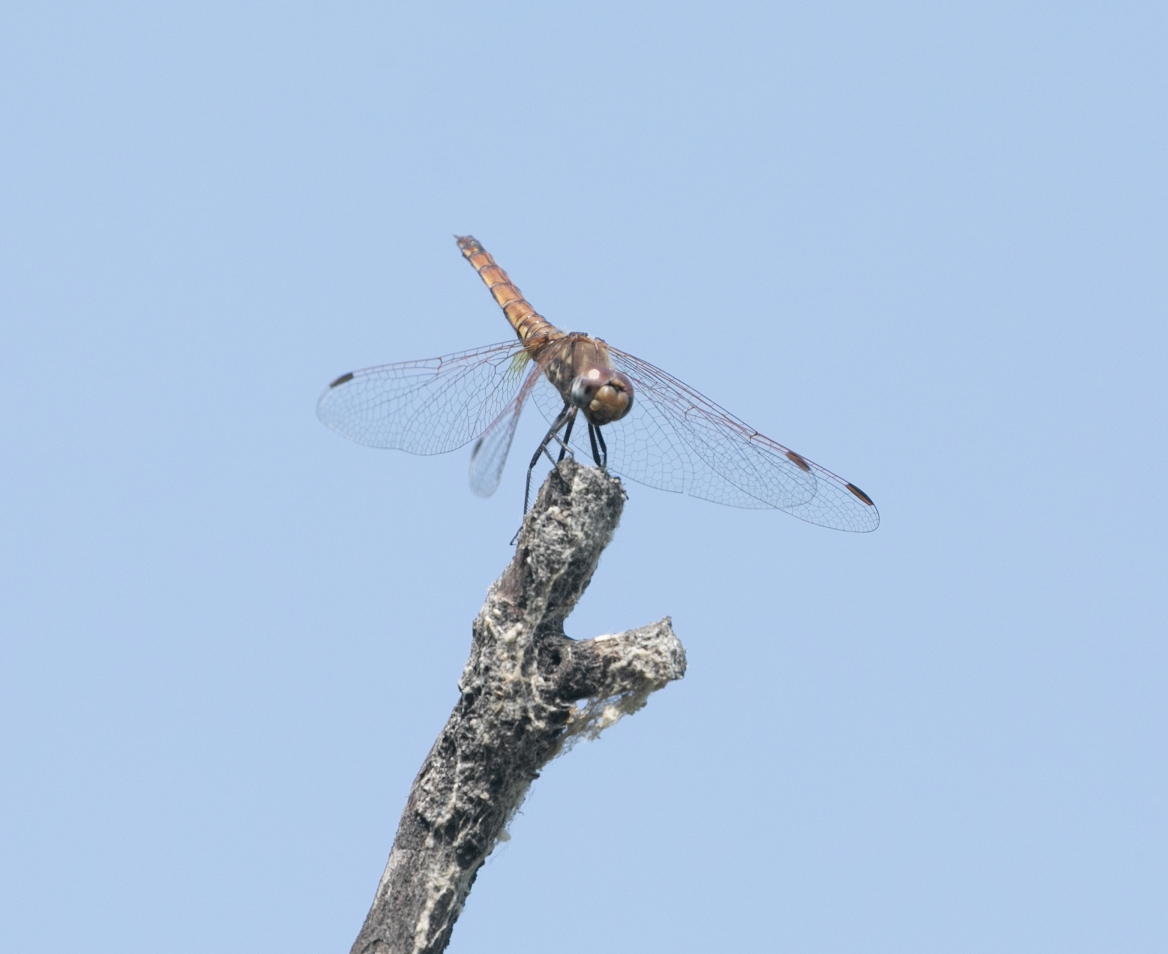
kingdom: Animalia
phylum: Arthropoda
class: Insecta
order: Odonata
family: Libellulidae
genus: Trithemis
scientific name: Trithemis annulata
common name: Violet dropwing
